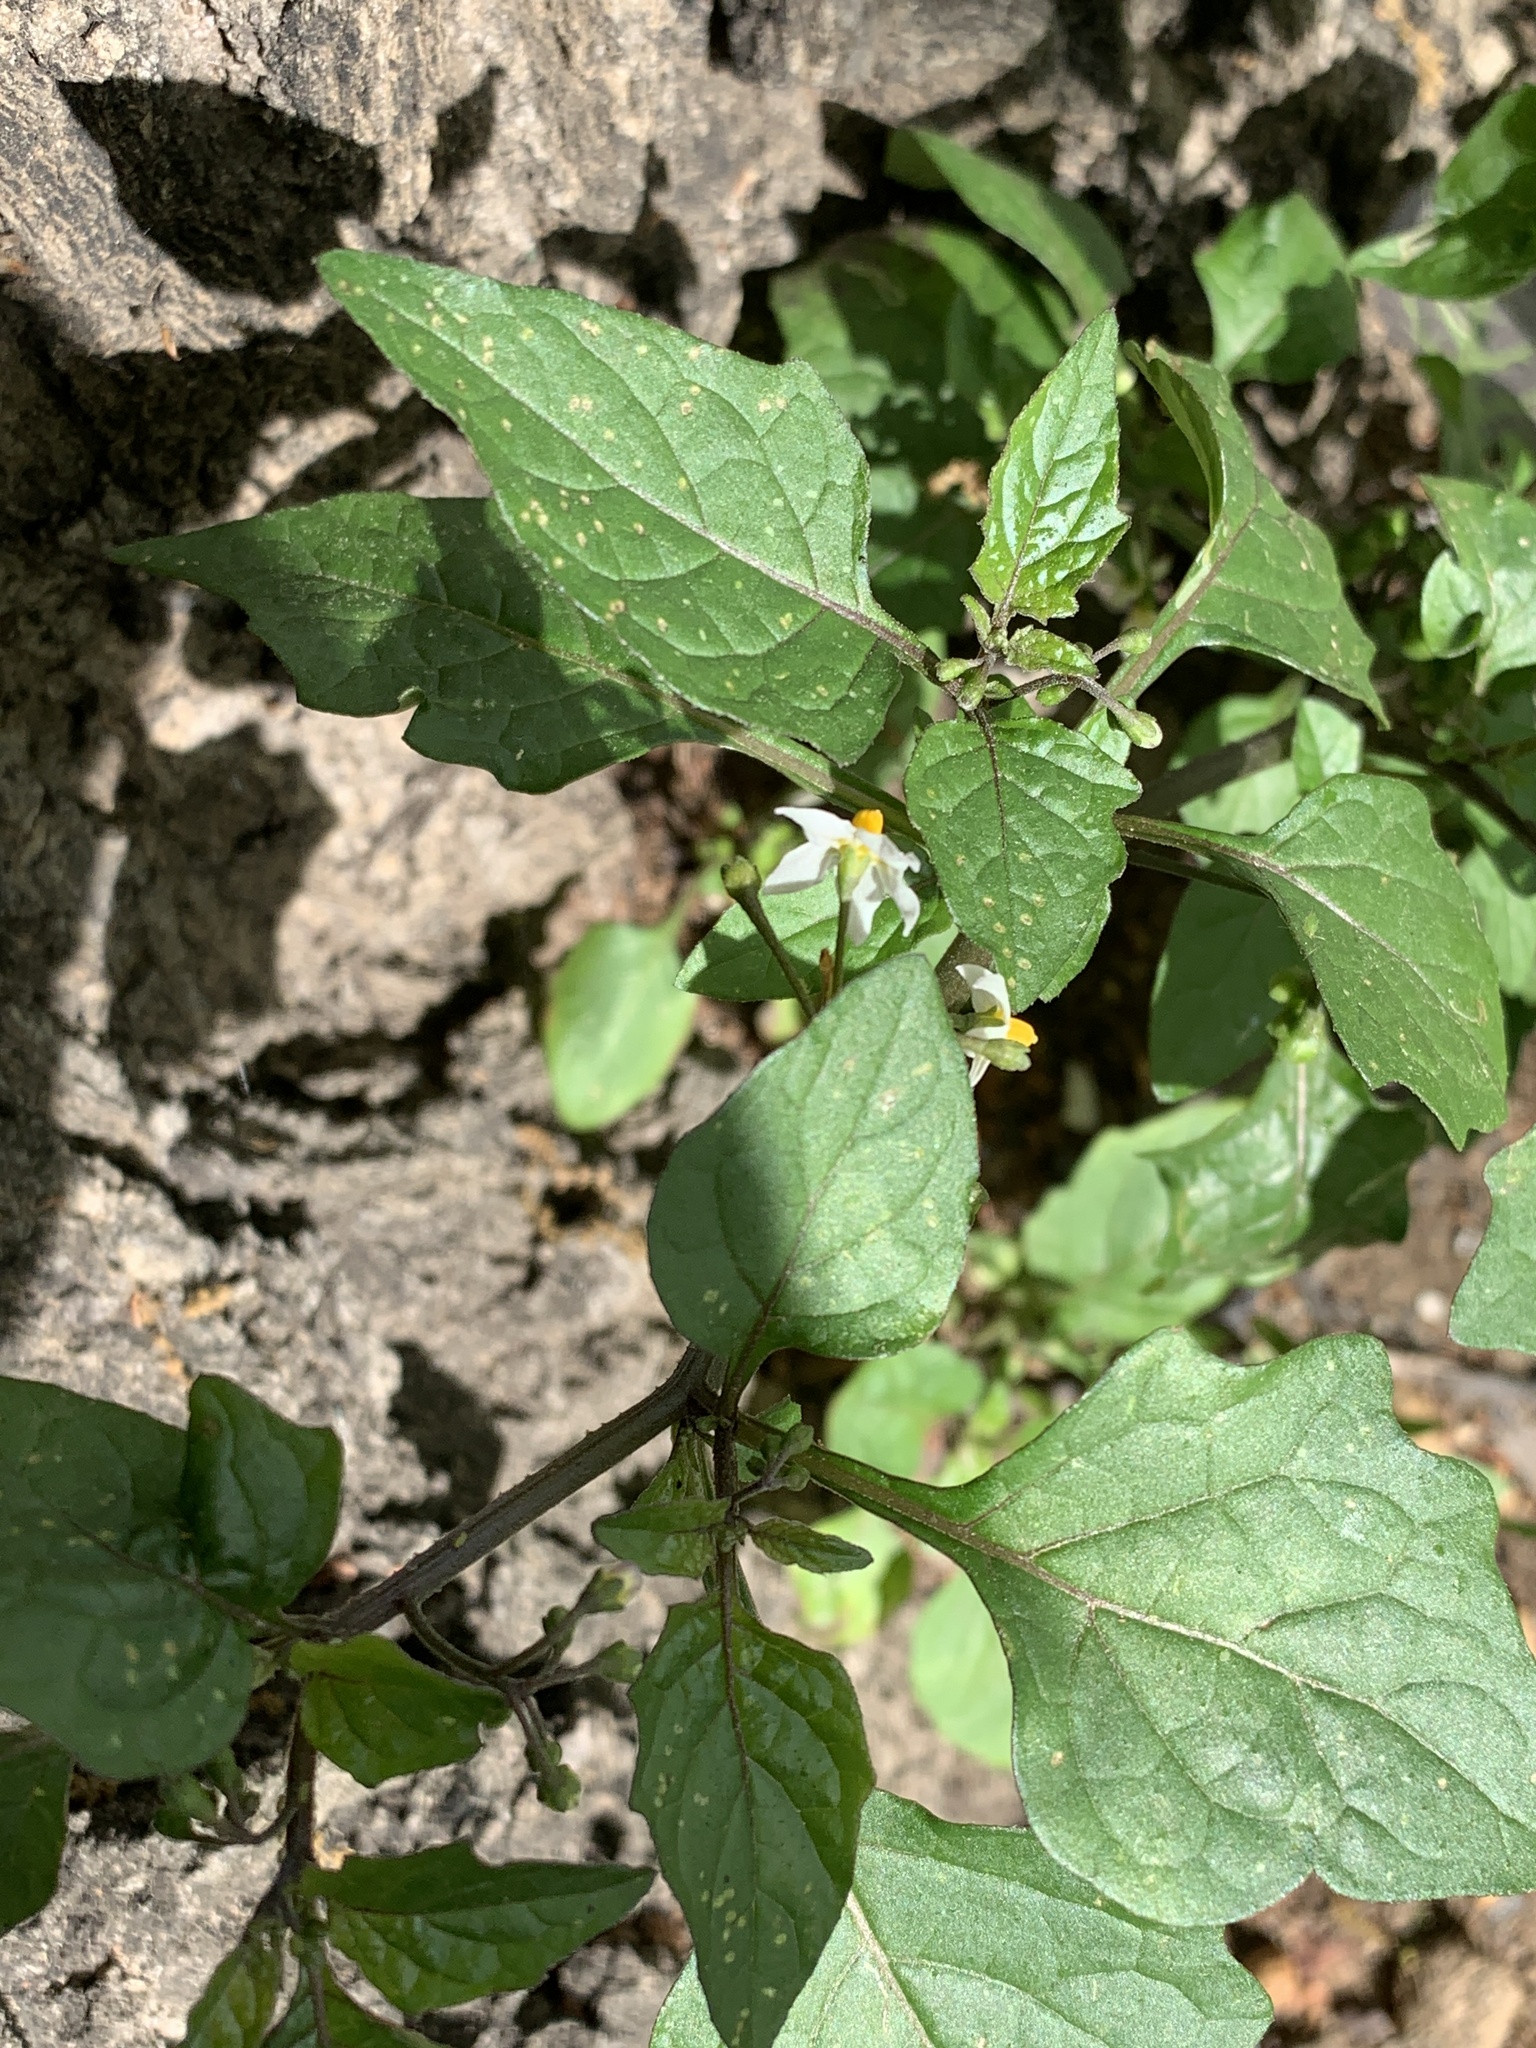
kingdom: Plantae
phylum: Tracheophyta
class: Magnoliopsida
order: Solanales
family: Solanaceae
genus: Solanum
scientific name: Solanum nigrum
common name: Black nightshade
